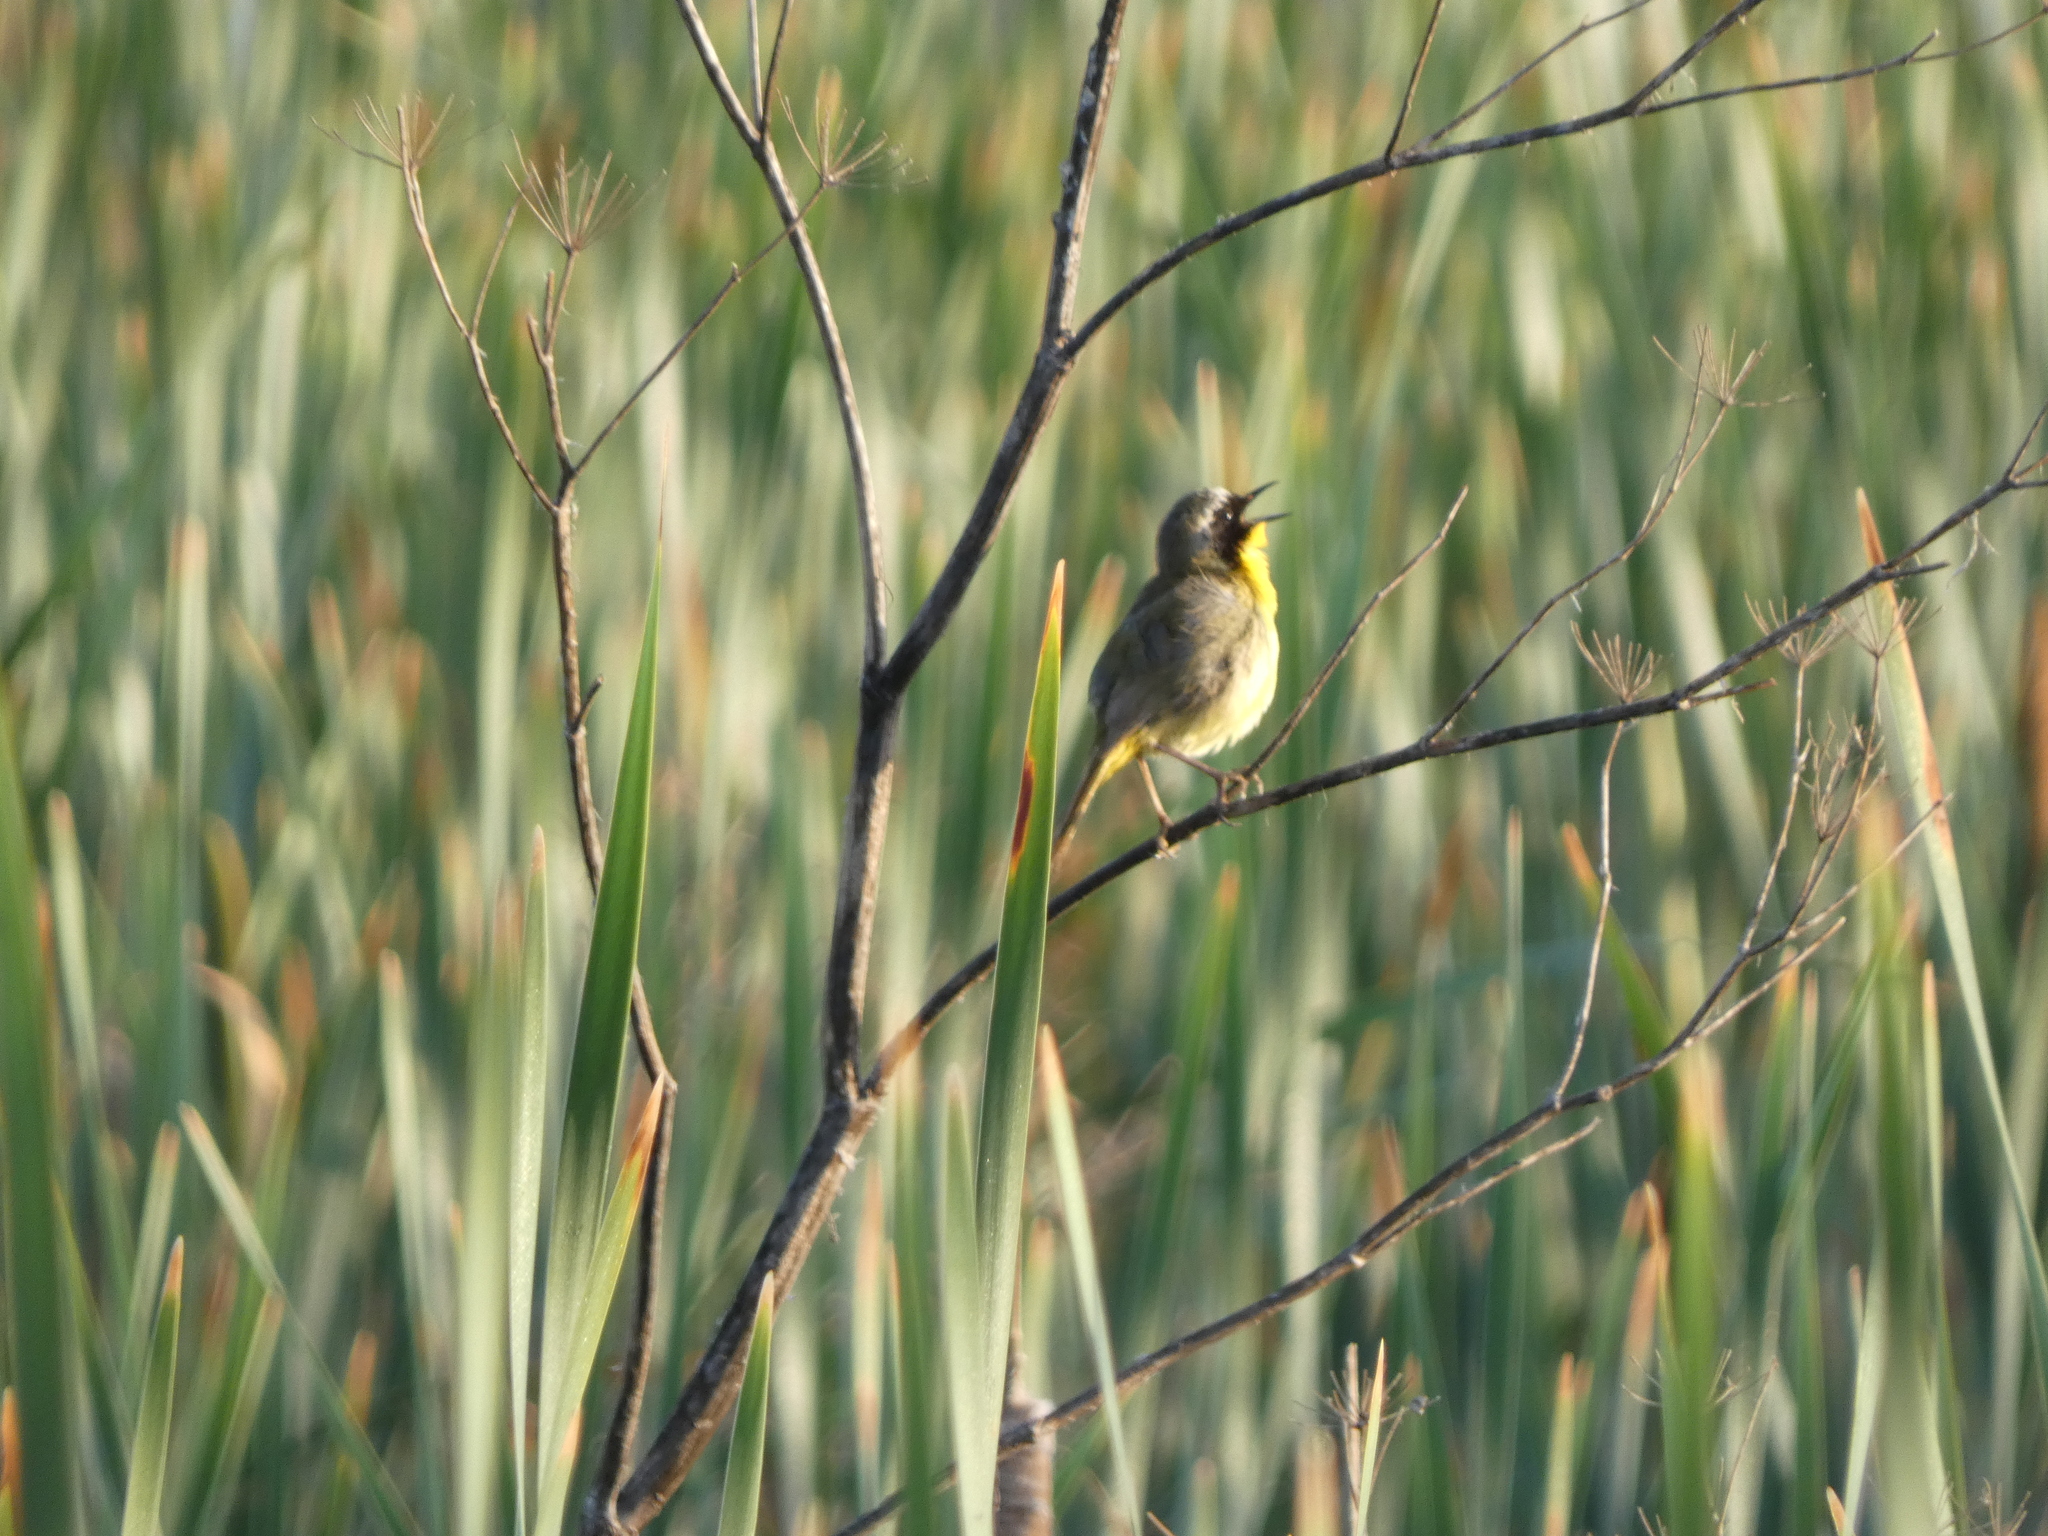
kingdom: Animalia
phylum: Chordata
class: Aves
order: Passeriformes
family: Parulidae
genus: Geothlypis
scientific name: Geothlypis trichas
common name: Common yellowthroat
